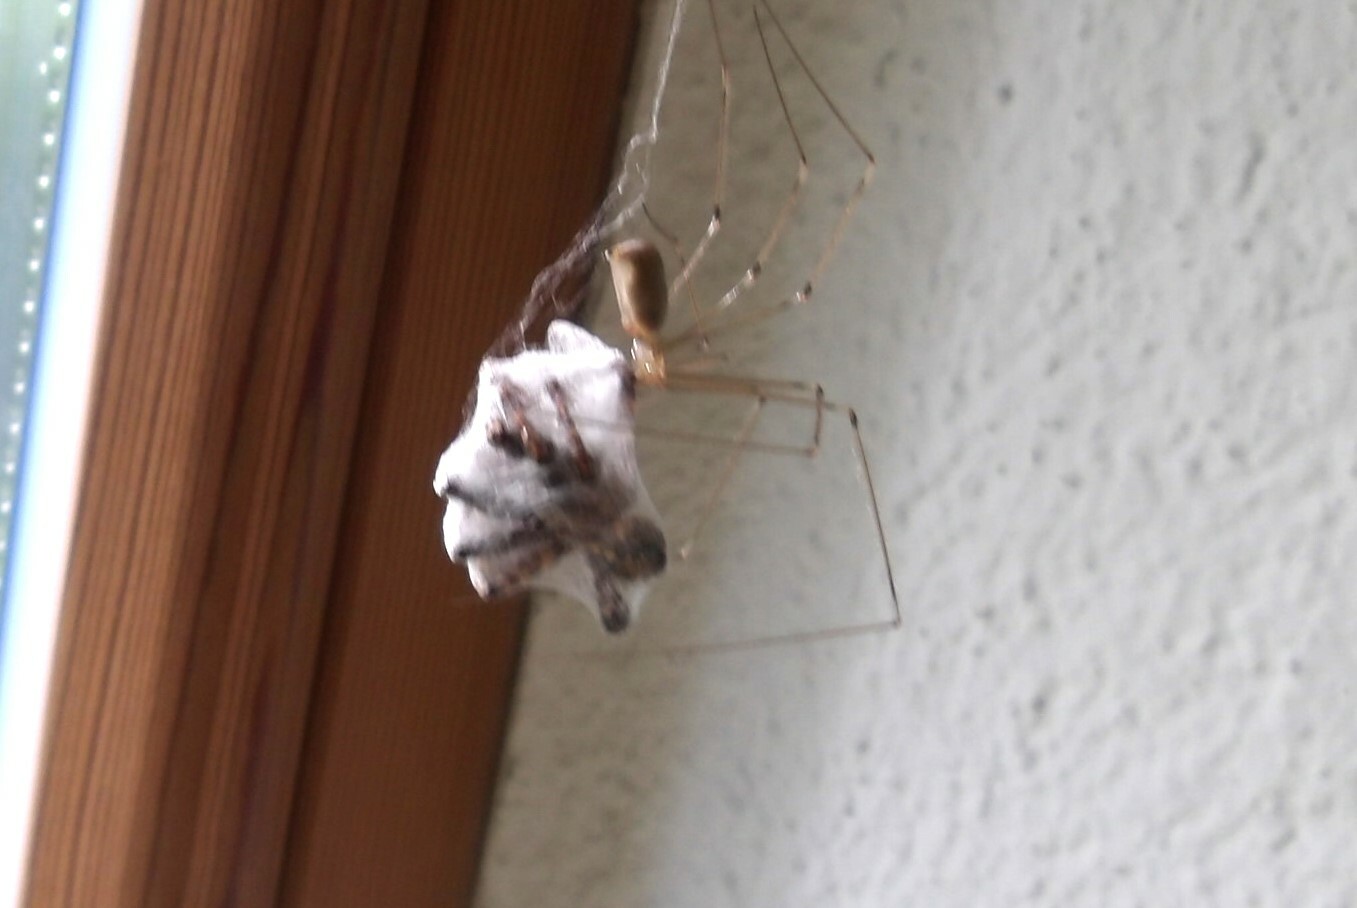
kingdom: Animalia
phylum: Arthropoda
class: Arachnida
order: Araneae
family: Pholcidae
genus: Pholcus
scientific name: Pholcus phalangioides
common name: Longbodied cellar spider
